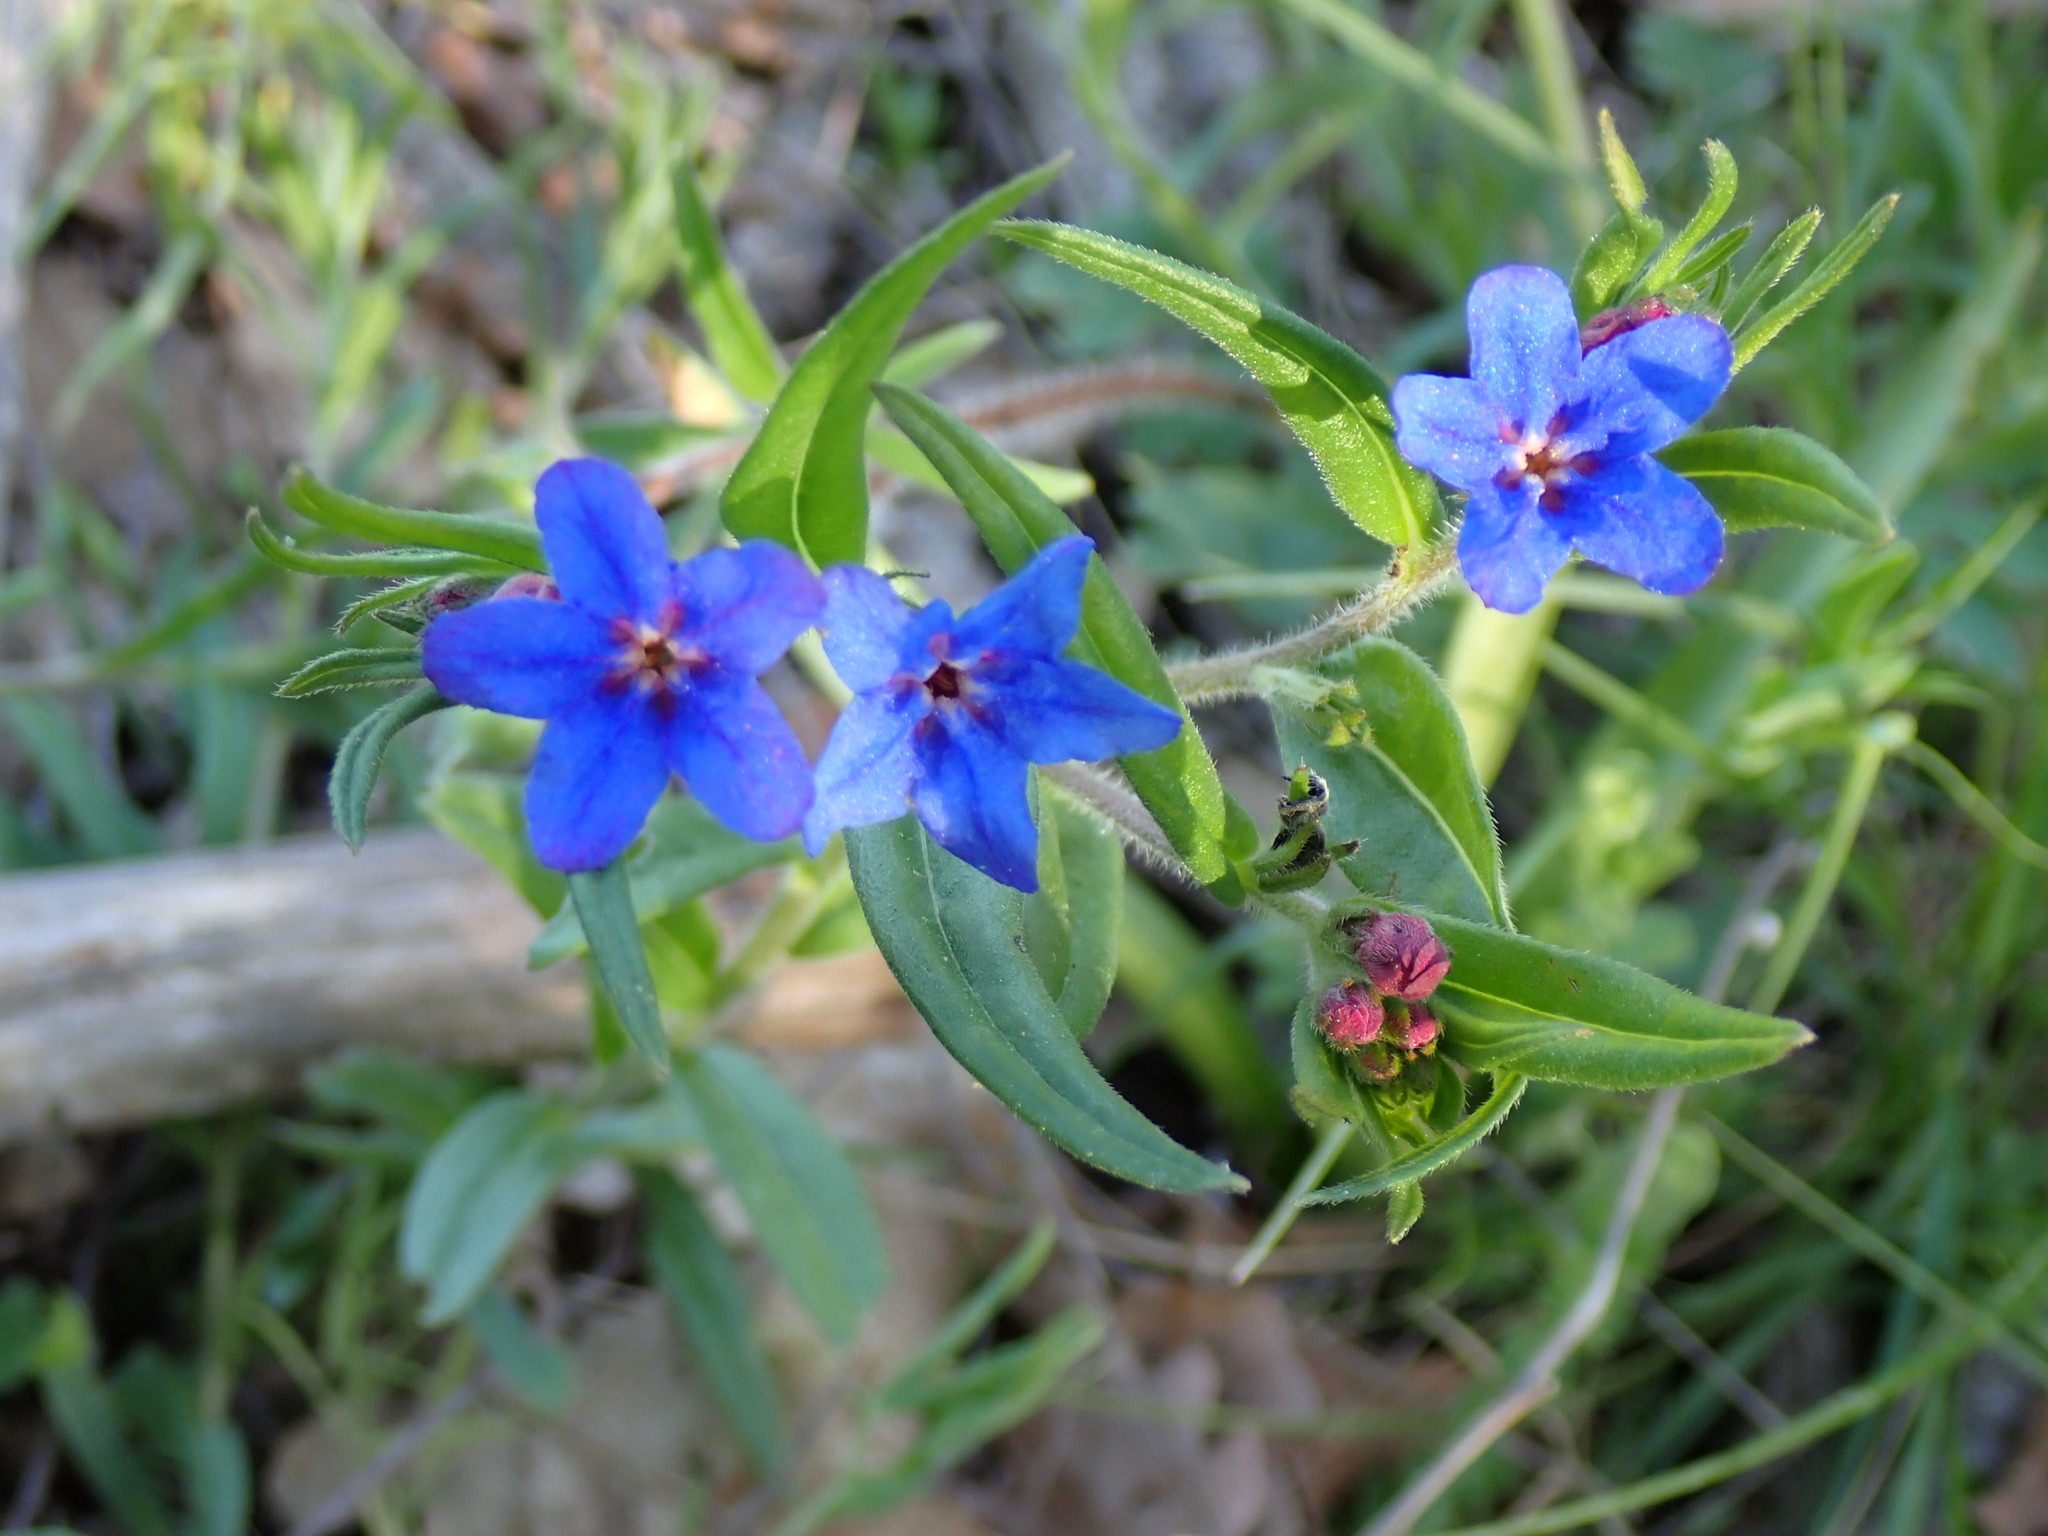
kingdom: Plantae
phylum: Tracheophyta
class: Magnoliopsida
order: Boraginales
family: Boraginaceae
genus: Aegonychon
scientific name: Aegonychon purpurocaeruleum
